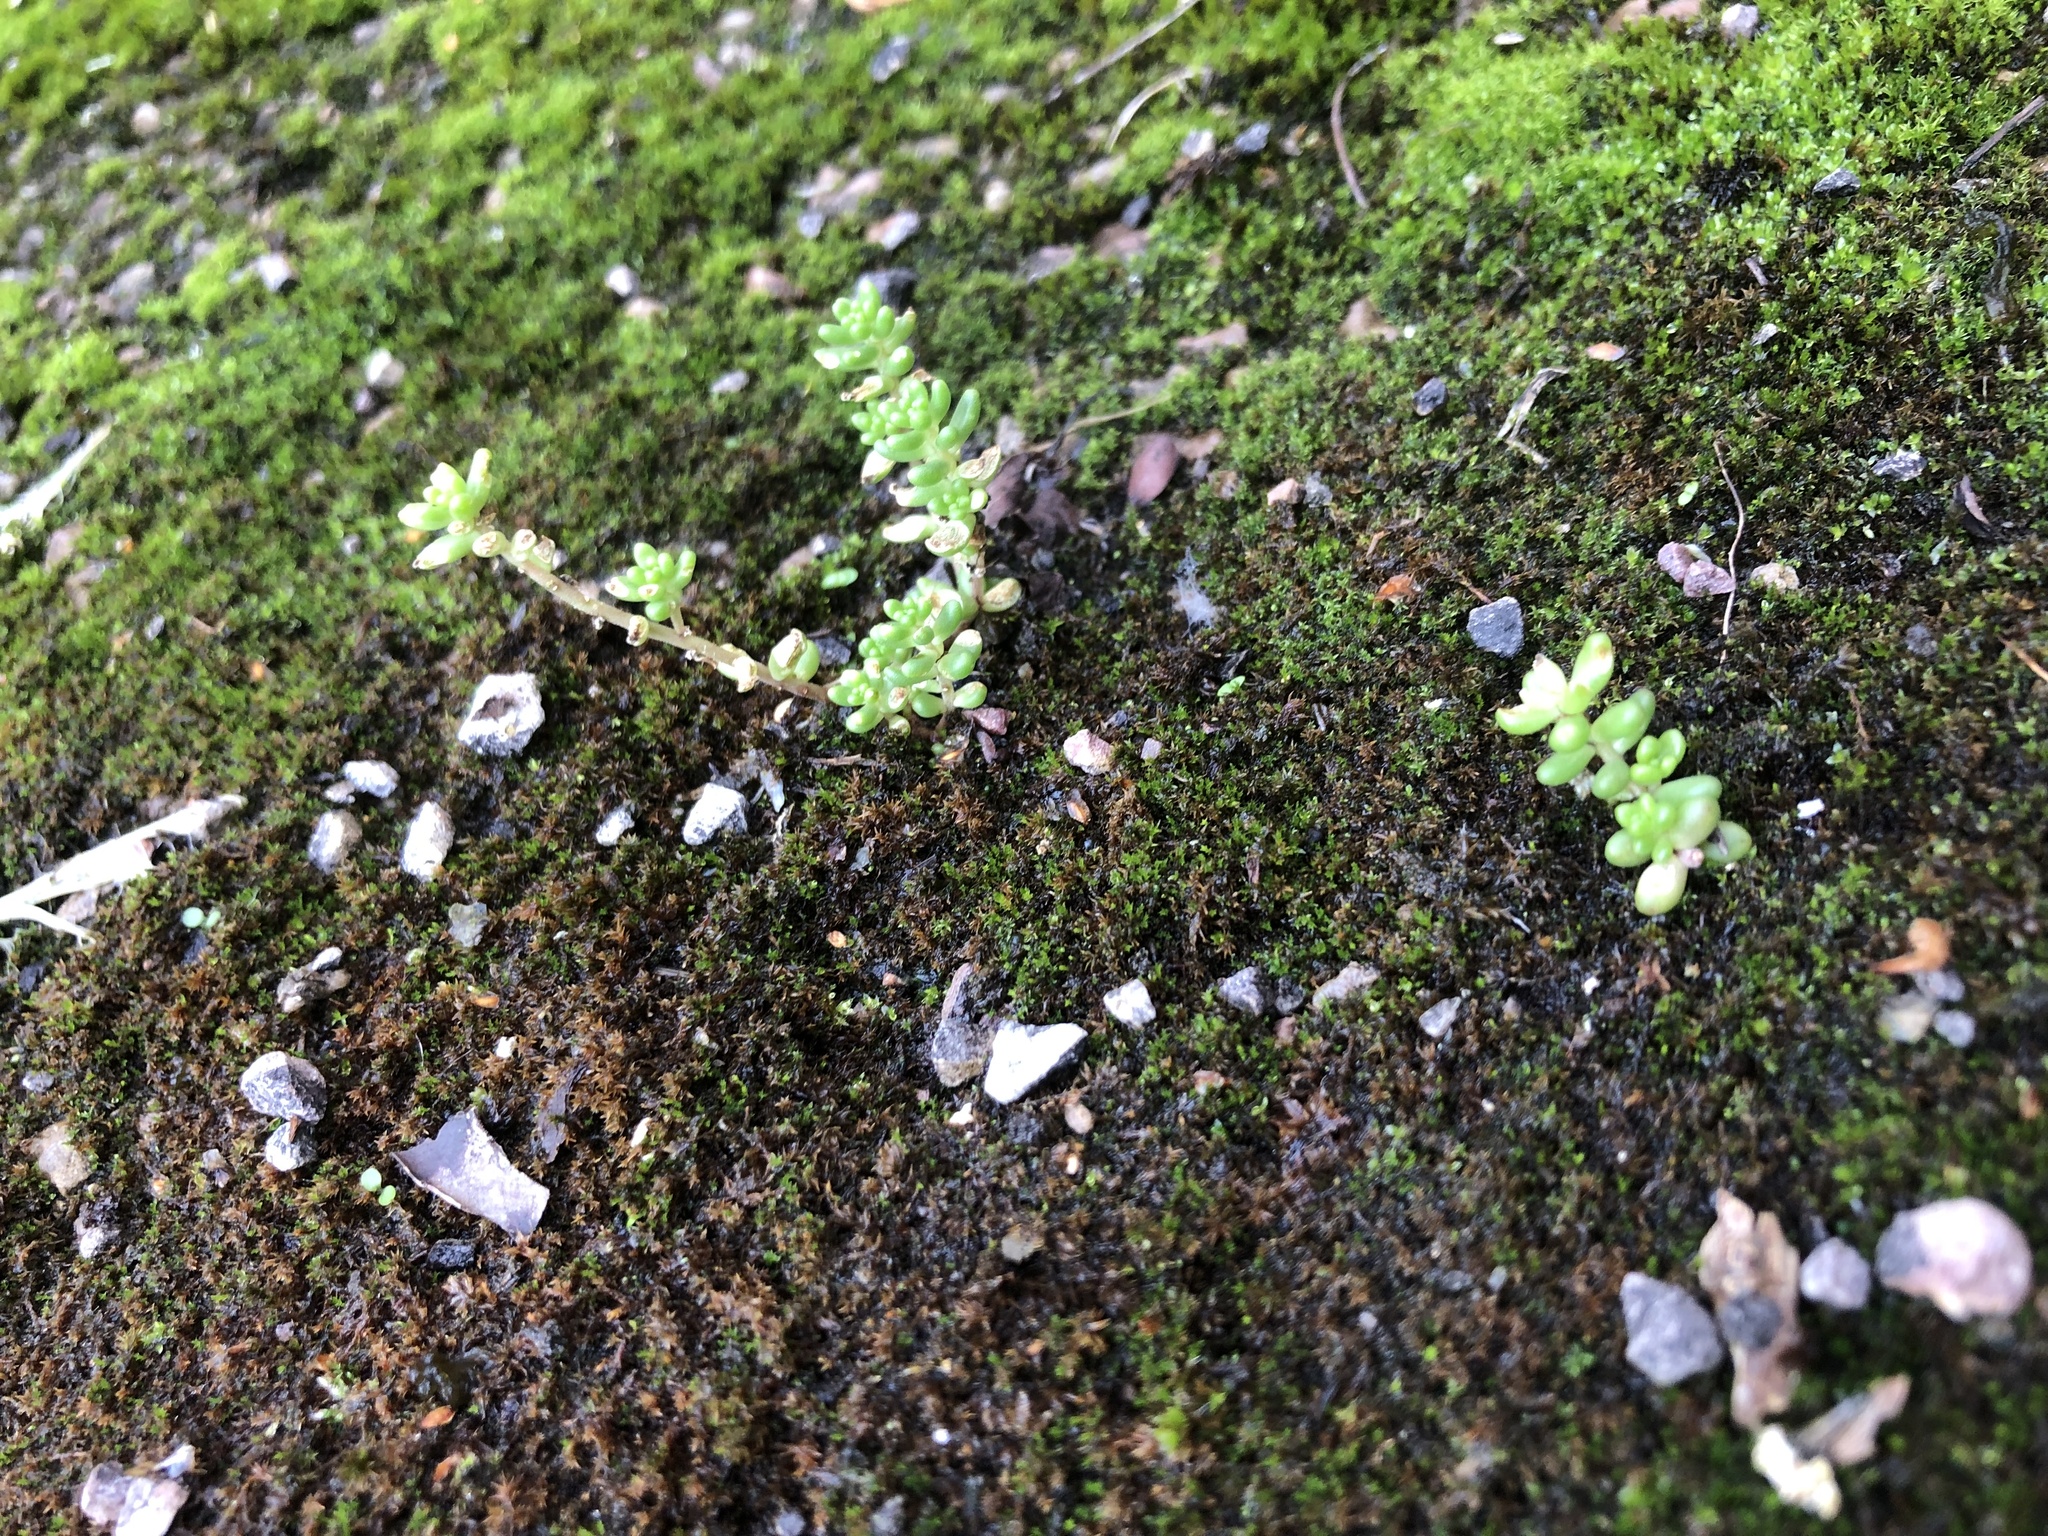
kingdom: Plantae
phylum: Tracheophyta
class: Magnoliopsida
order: Saxifragales
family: Crassulaceae
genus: Sedum
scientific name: Sedum album
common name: White stonecrop
